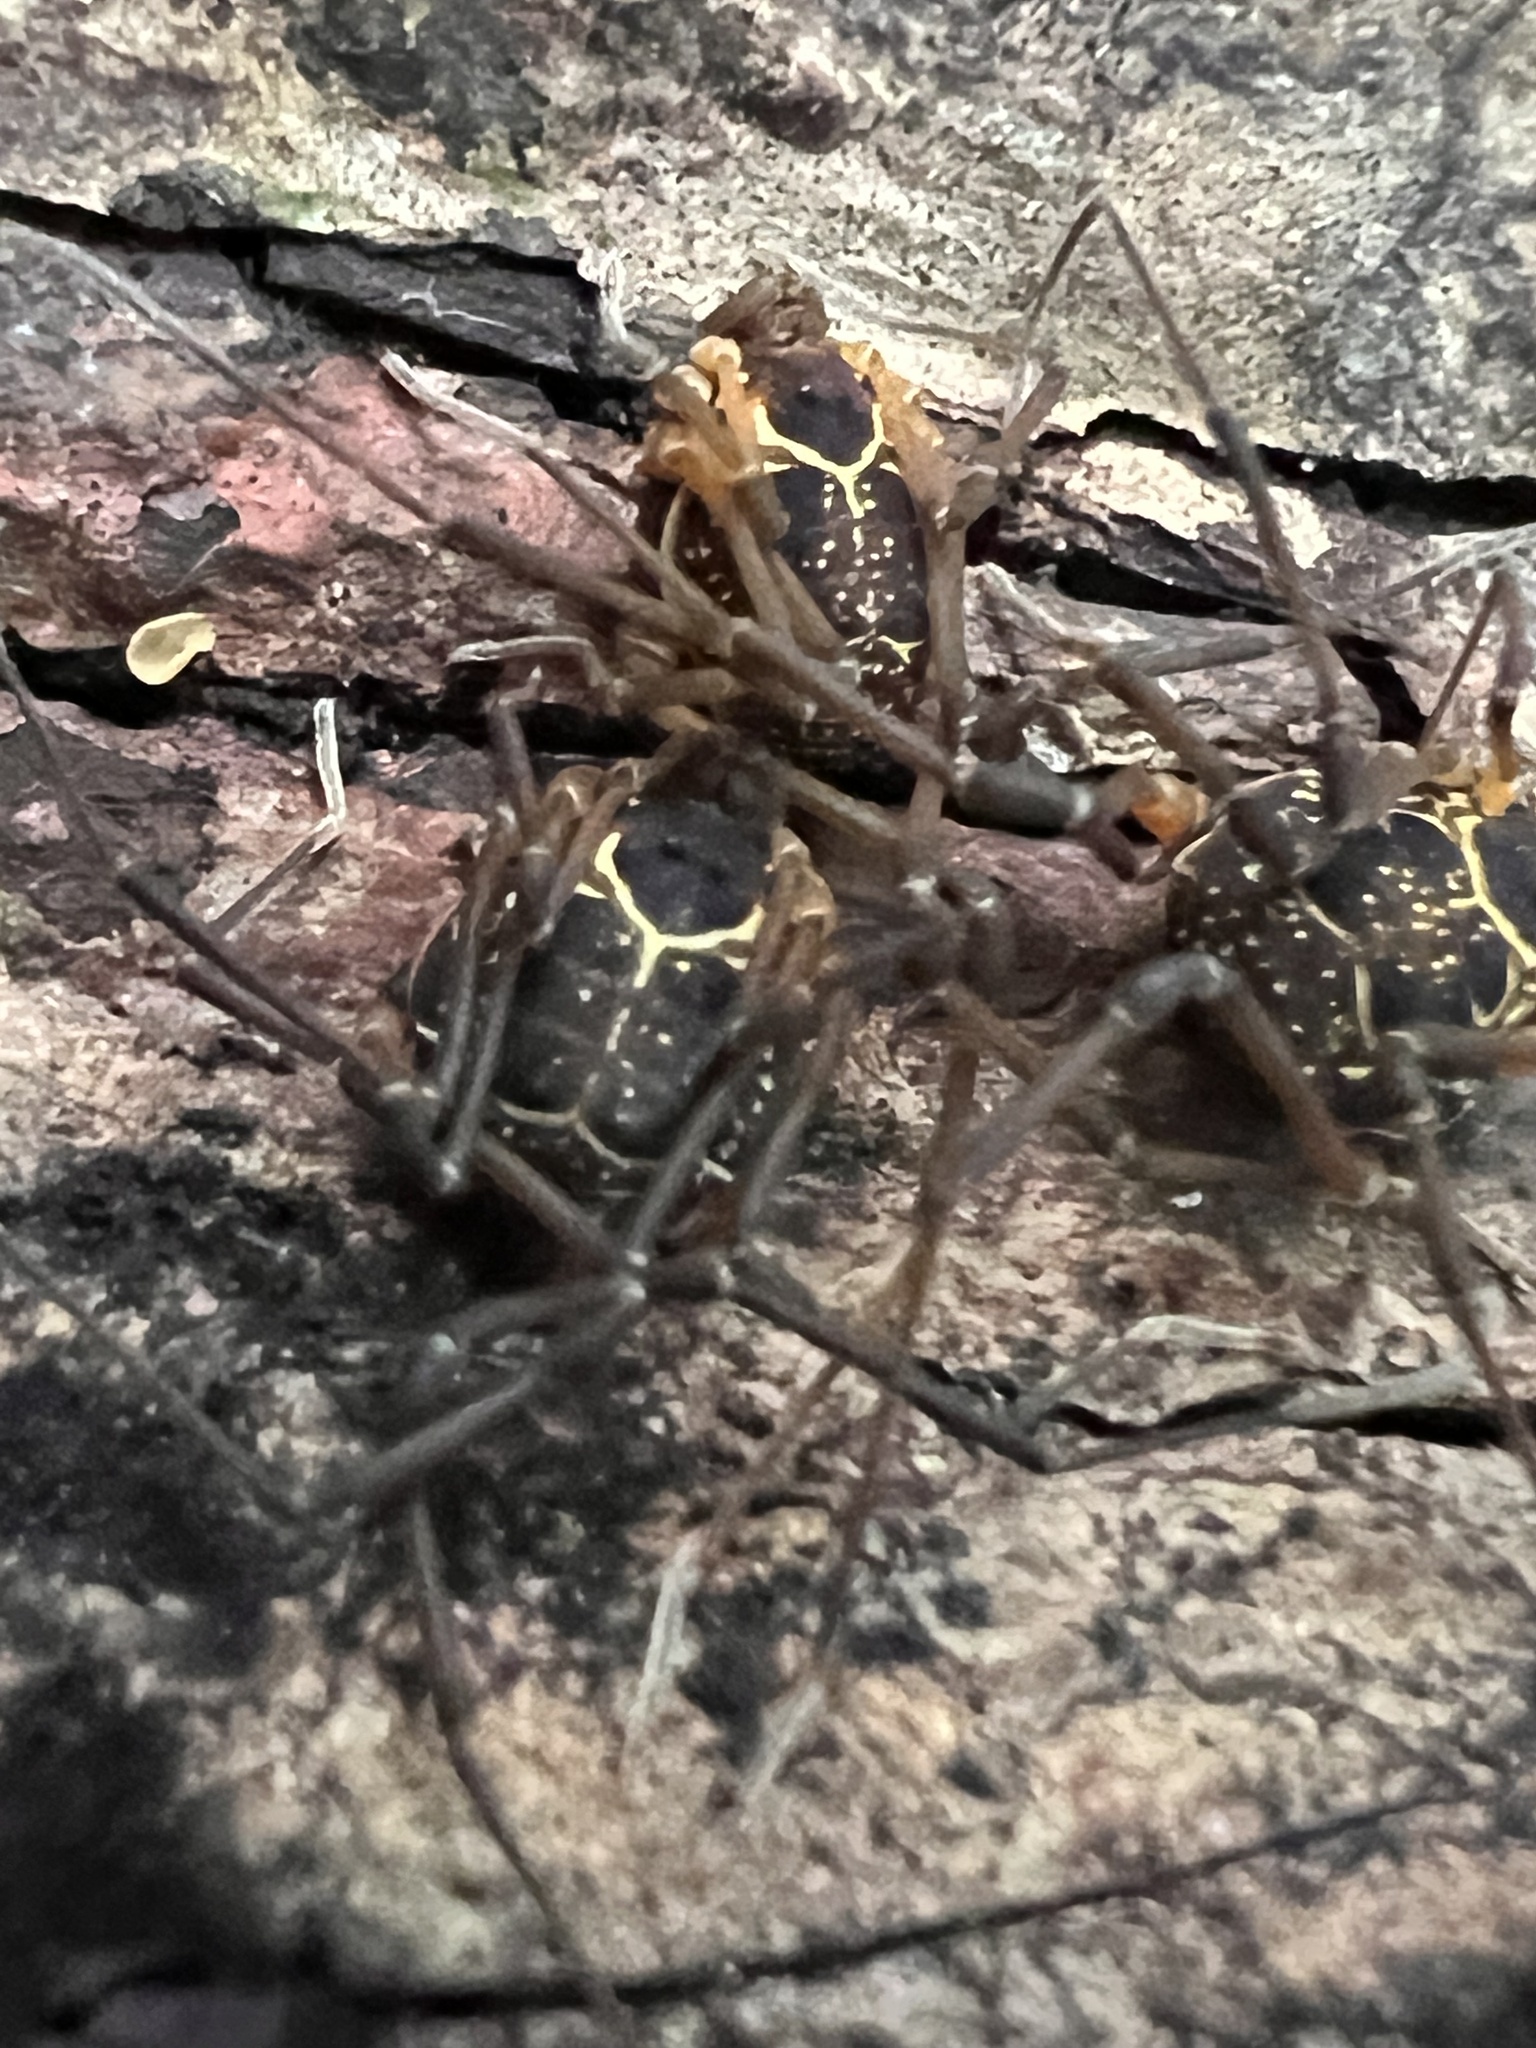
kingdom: Animalia
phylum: Arthropoda
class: Arachnida
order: Opiliones
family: Cosmetidae
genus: Eucynortula
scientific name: Eucynortula albipunctata
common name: Harvestmen
